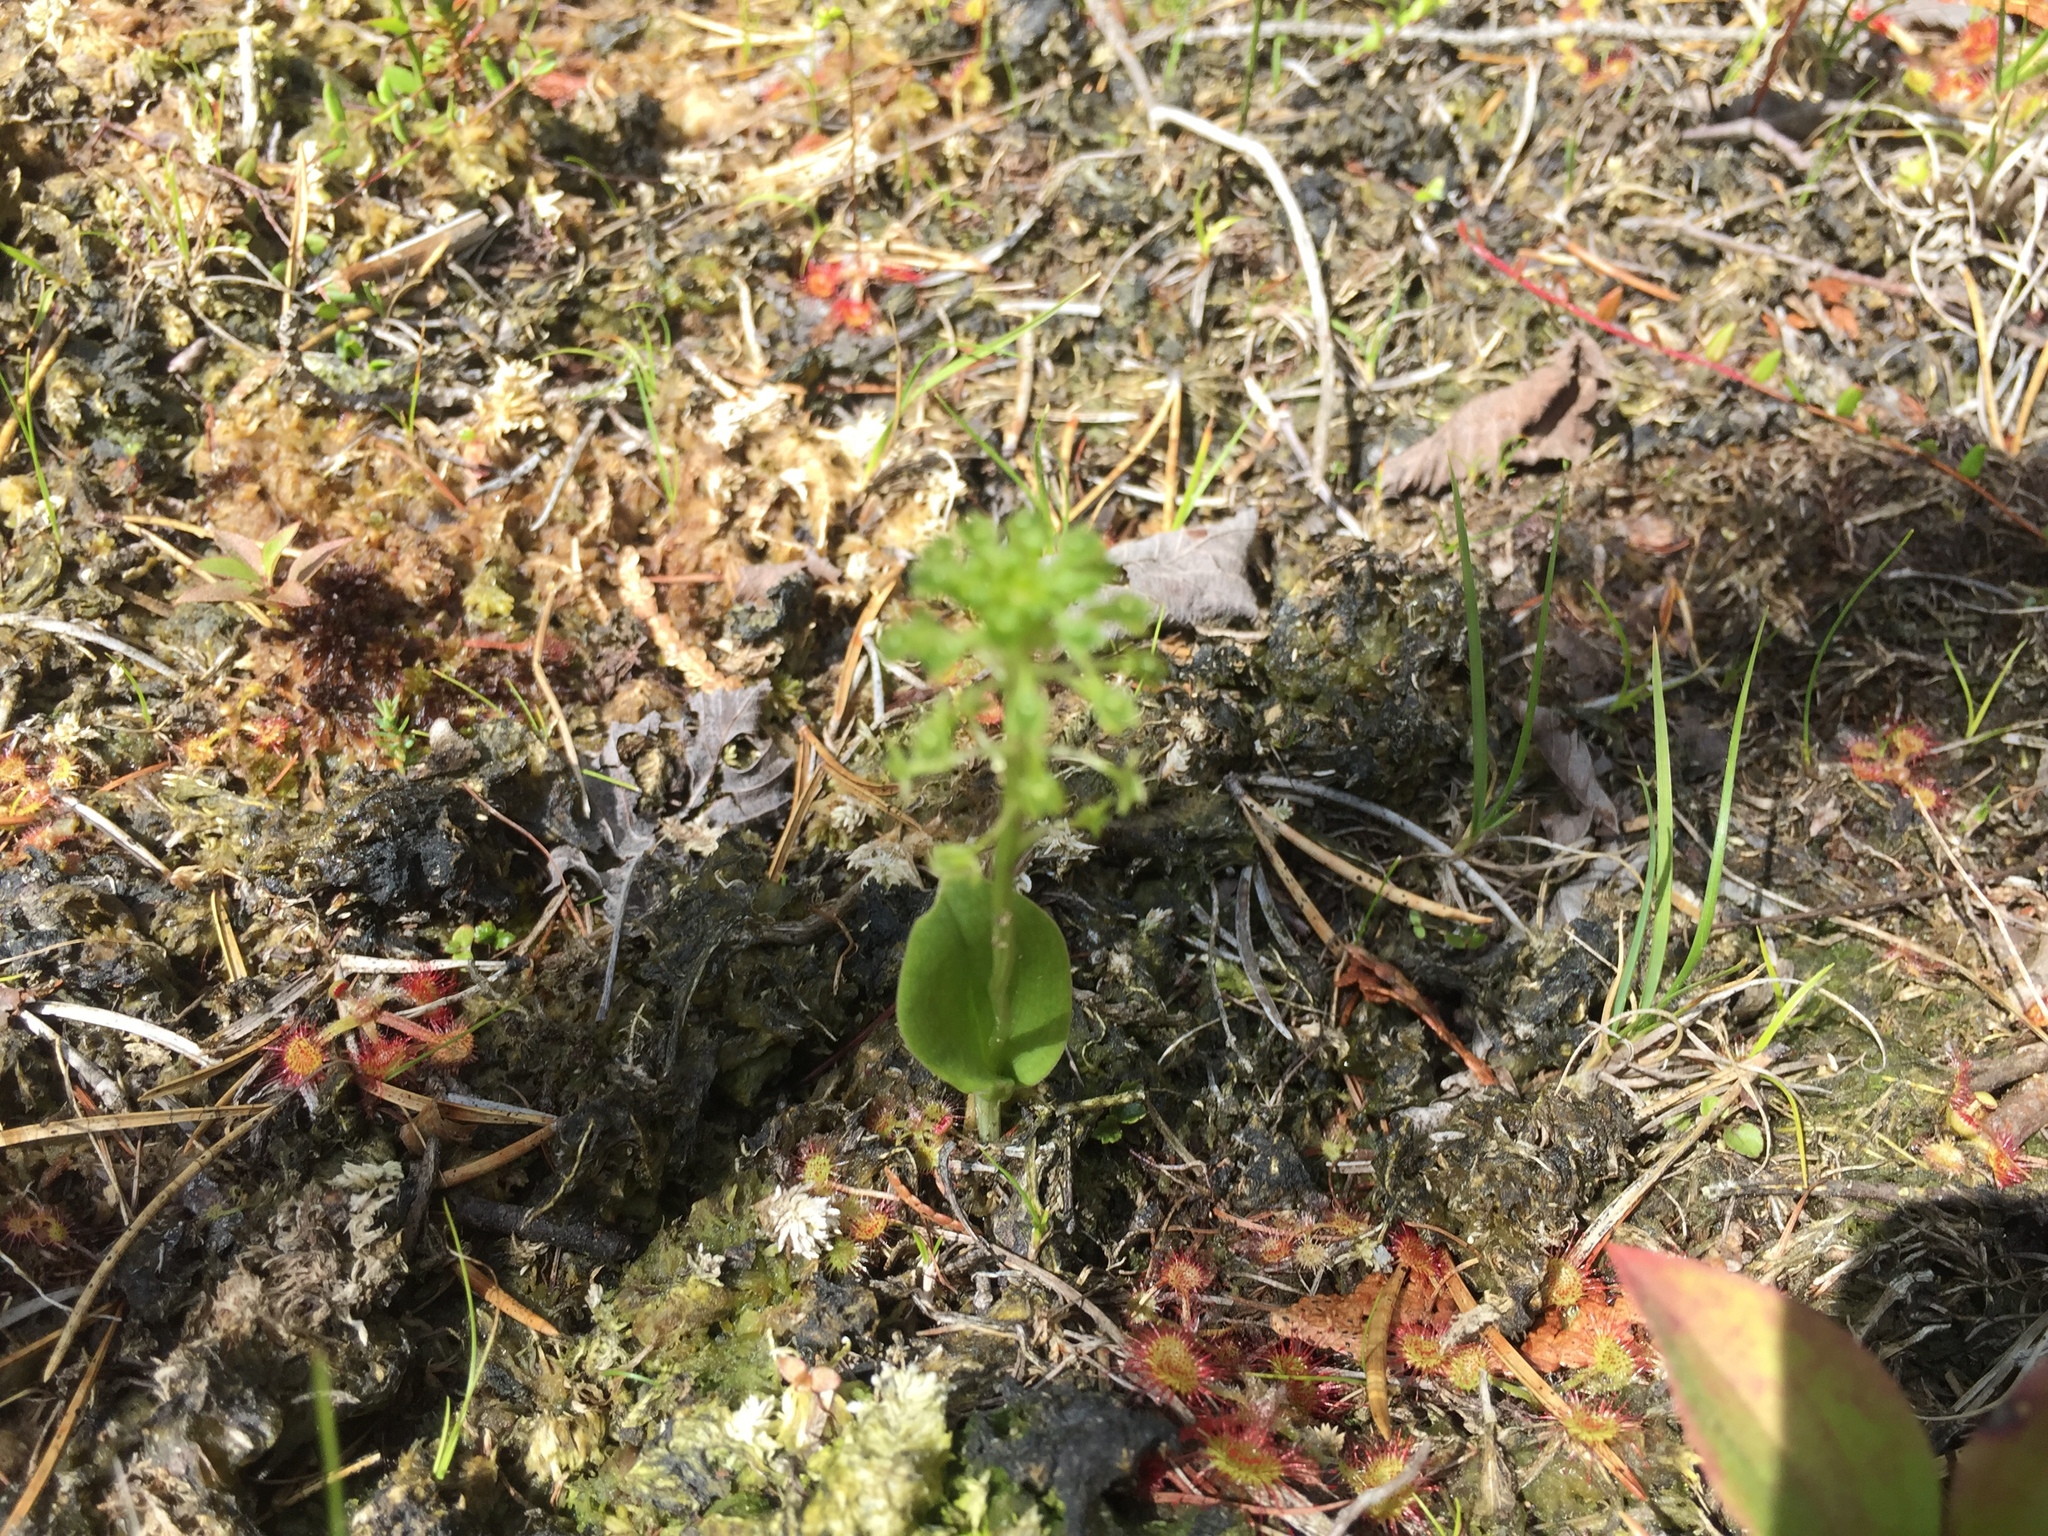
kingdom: Plantae
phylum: Tracheophyta
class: Liliopsida
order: Asparagales
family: Orchidaceae
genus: Malaxis
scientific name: Malaxis unifolia
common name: Green adder's-mouth
